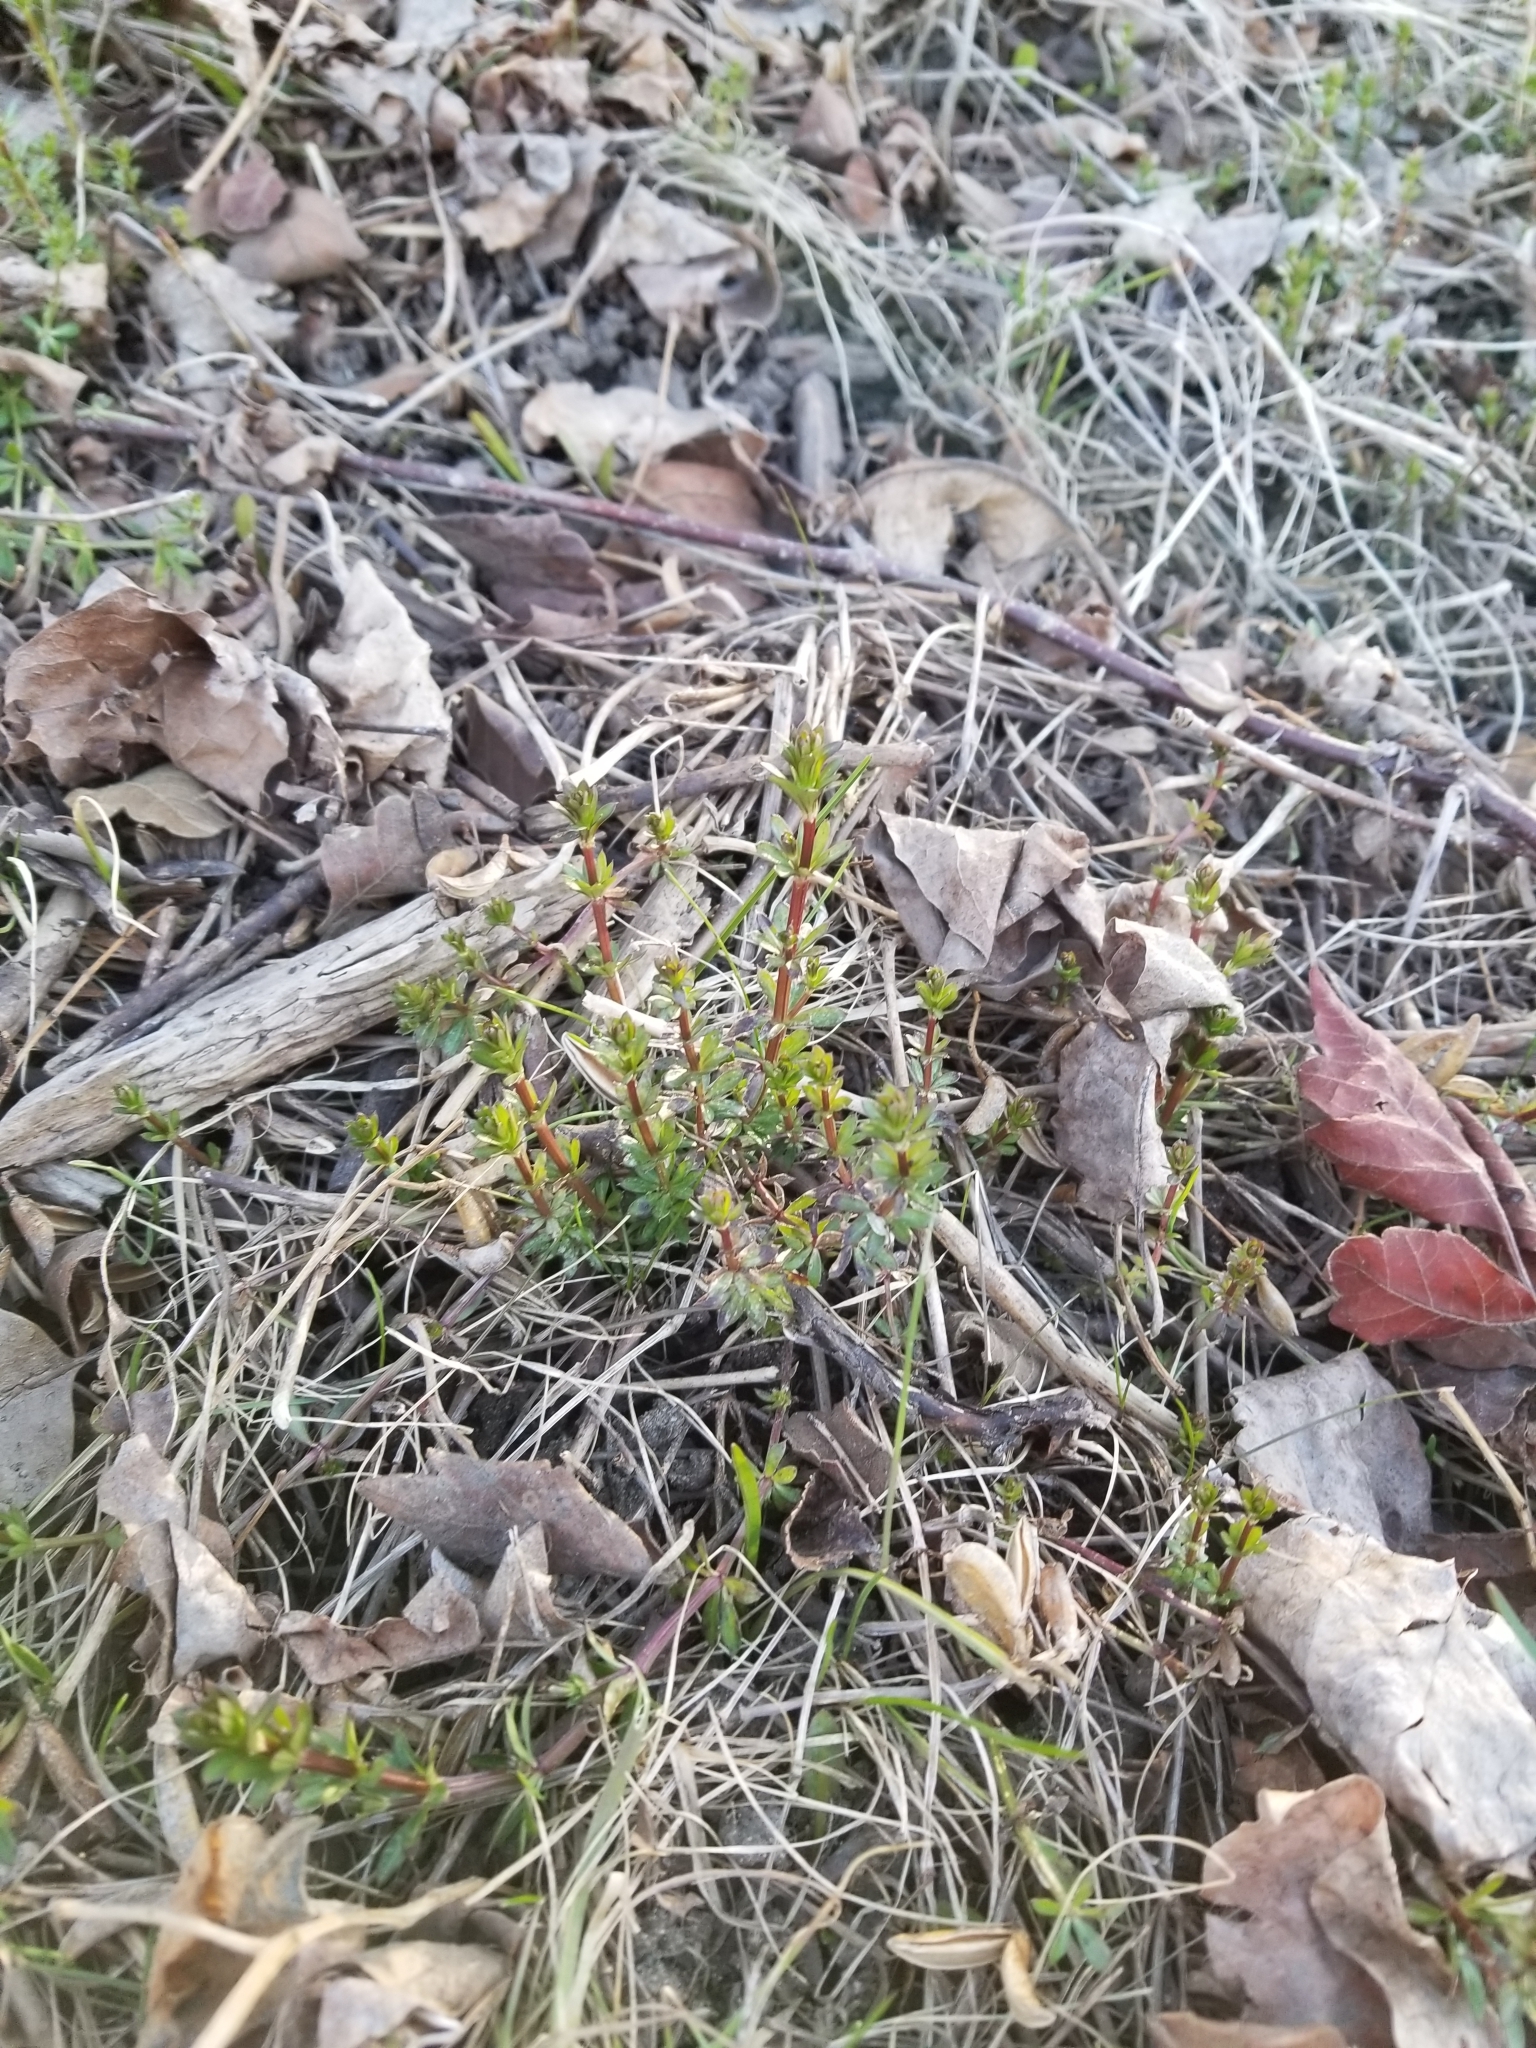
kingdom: Plantae
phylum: Tracheophyta
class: Magnoliopsida
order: Gentianales
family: Rubiaceae
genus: Galium
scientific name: Galium album
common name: White bedstraw
